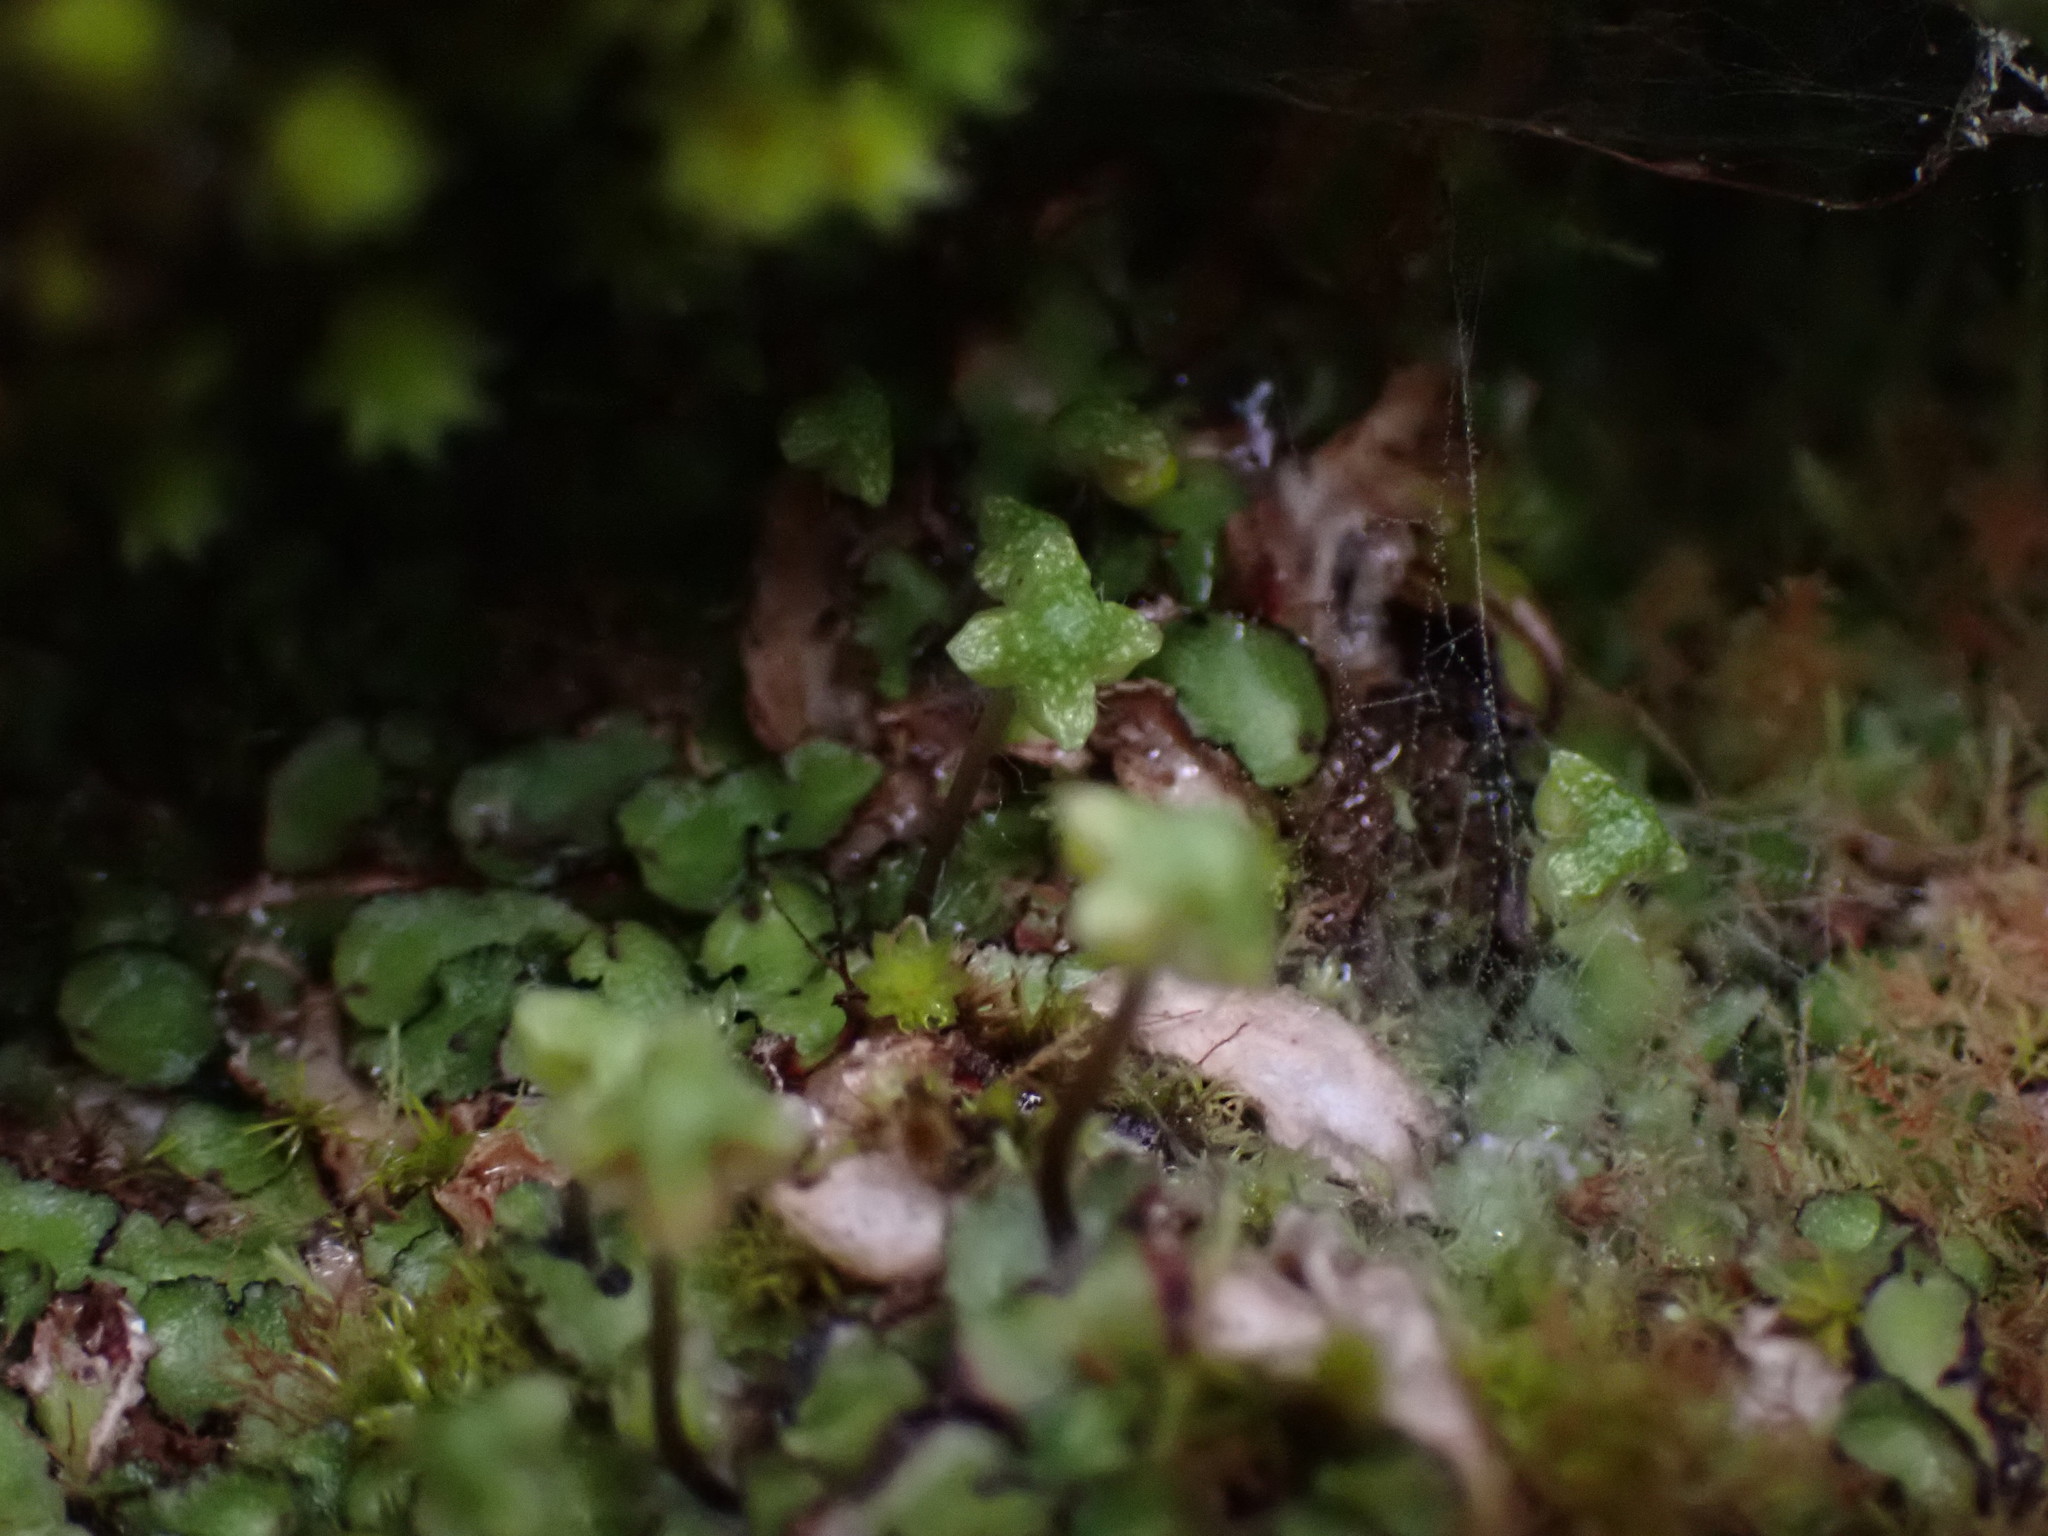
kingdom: Plantae
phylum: Marchantiophyta
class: Marchantiopsida
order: Marchantiales
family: Aytoniaceae
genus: Reboulia
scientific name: Reboulia hemisphaerica
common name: Purple-margined liverwort
